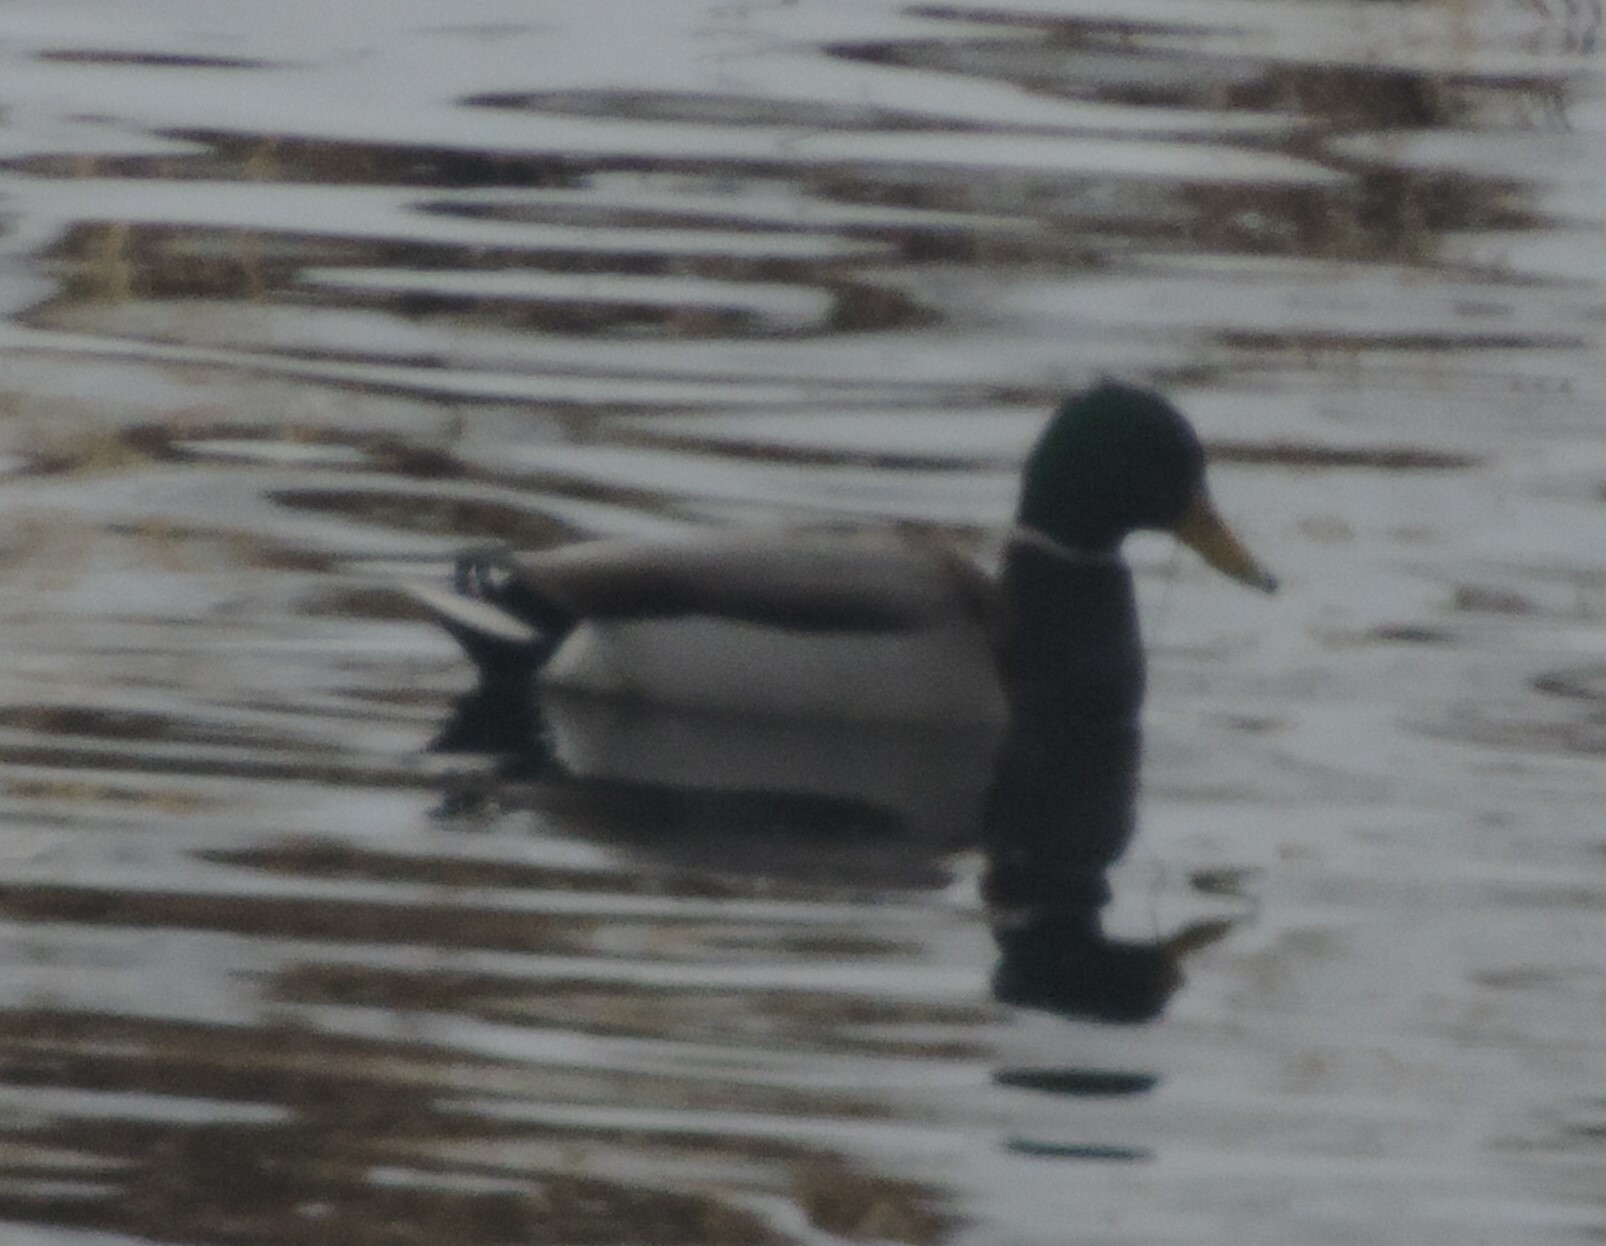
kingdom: Animalia
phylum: Chordata
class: Aves
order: Anseriformes
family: Anatidae
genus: Anas
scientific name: Anas platyrhynchos
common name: Mallard
